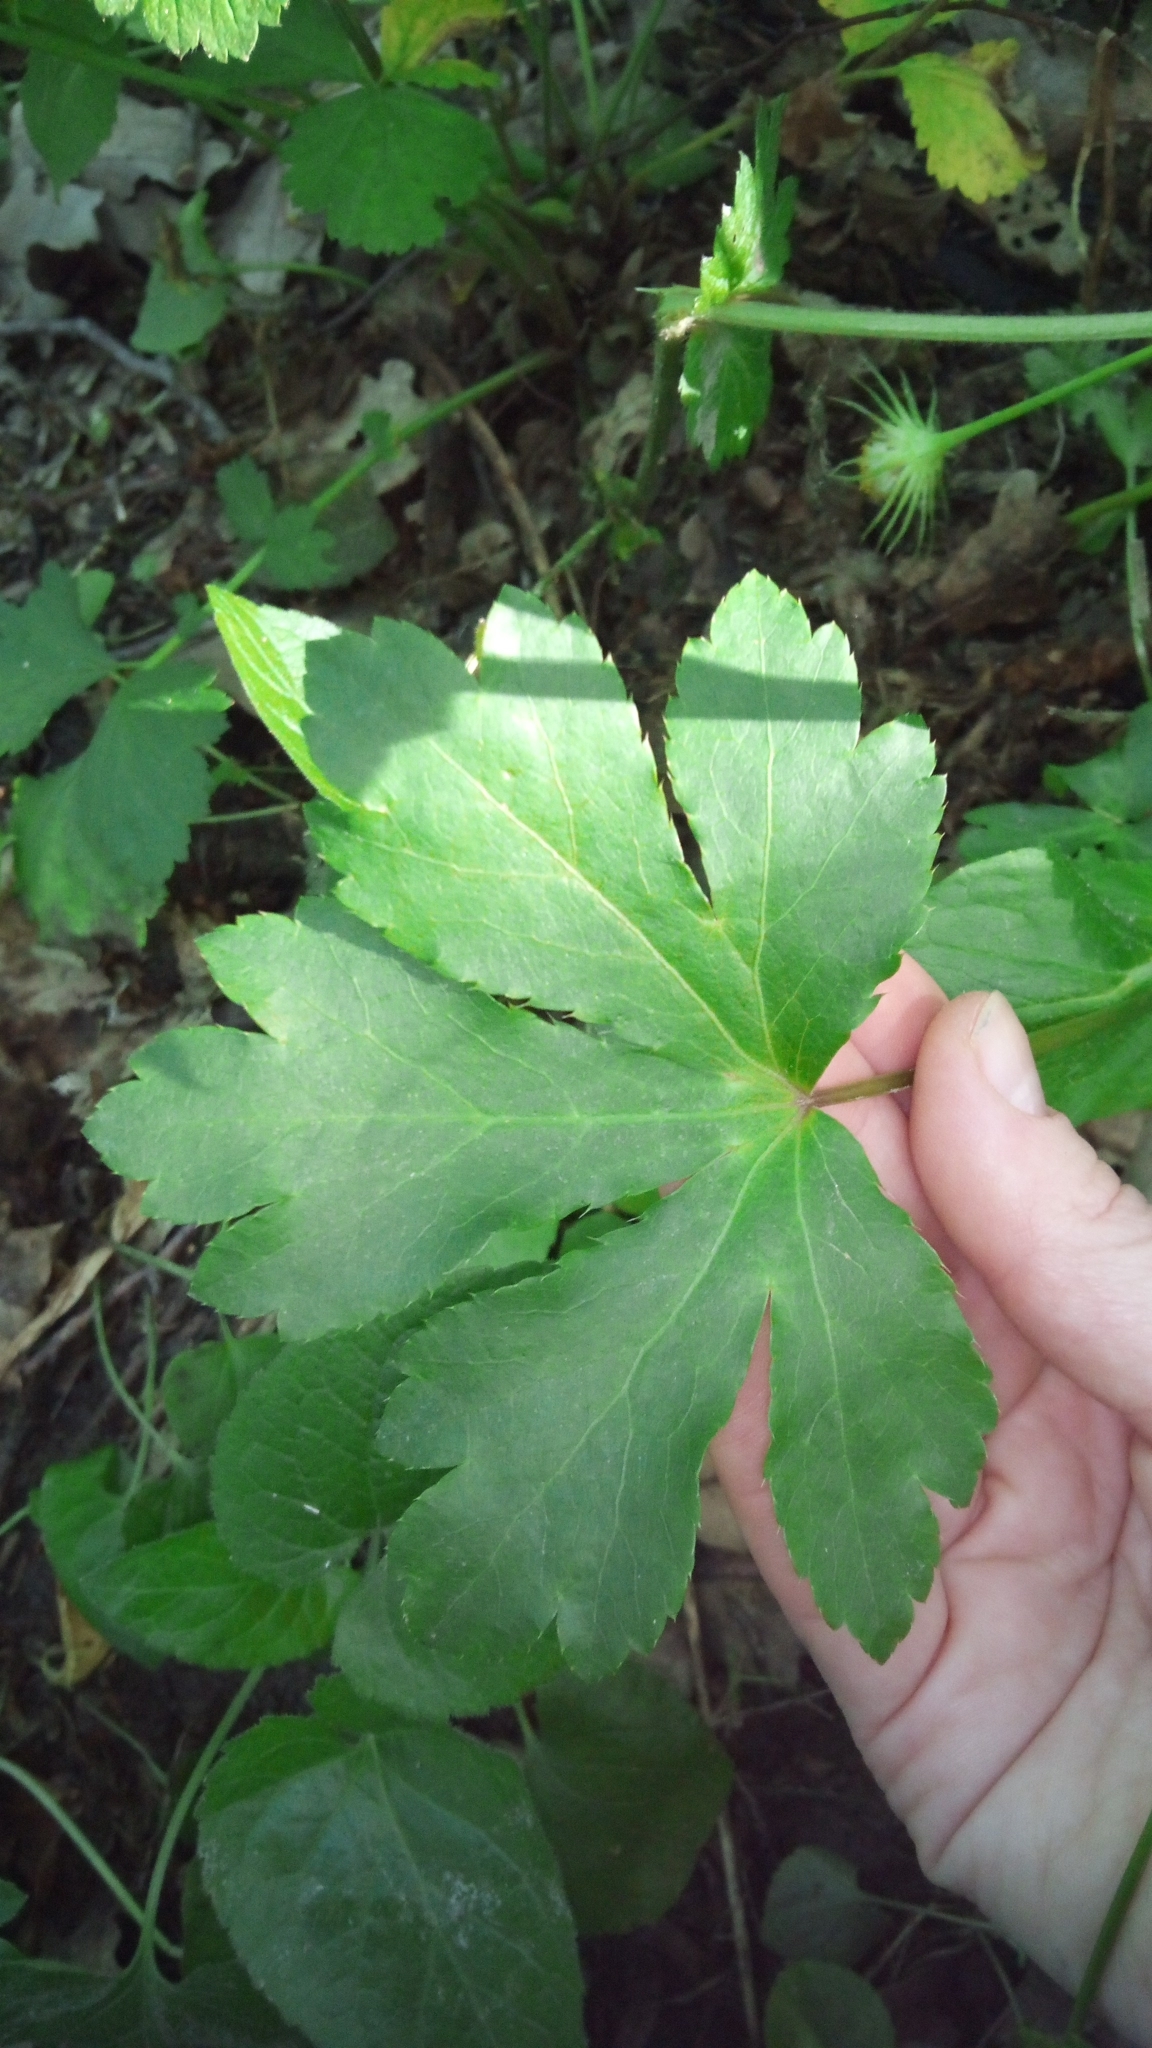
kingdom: Plantae
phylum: Tracheophyta
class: Magnoliopsida
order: Apiales
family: Apiaceae
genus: Sanicula
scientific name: Sanicula europaea
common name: Sanicle
